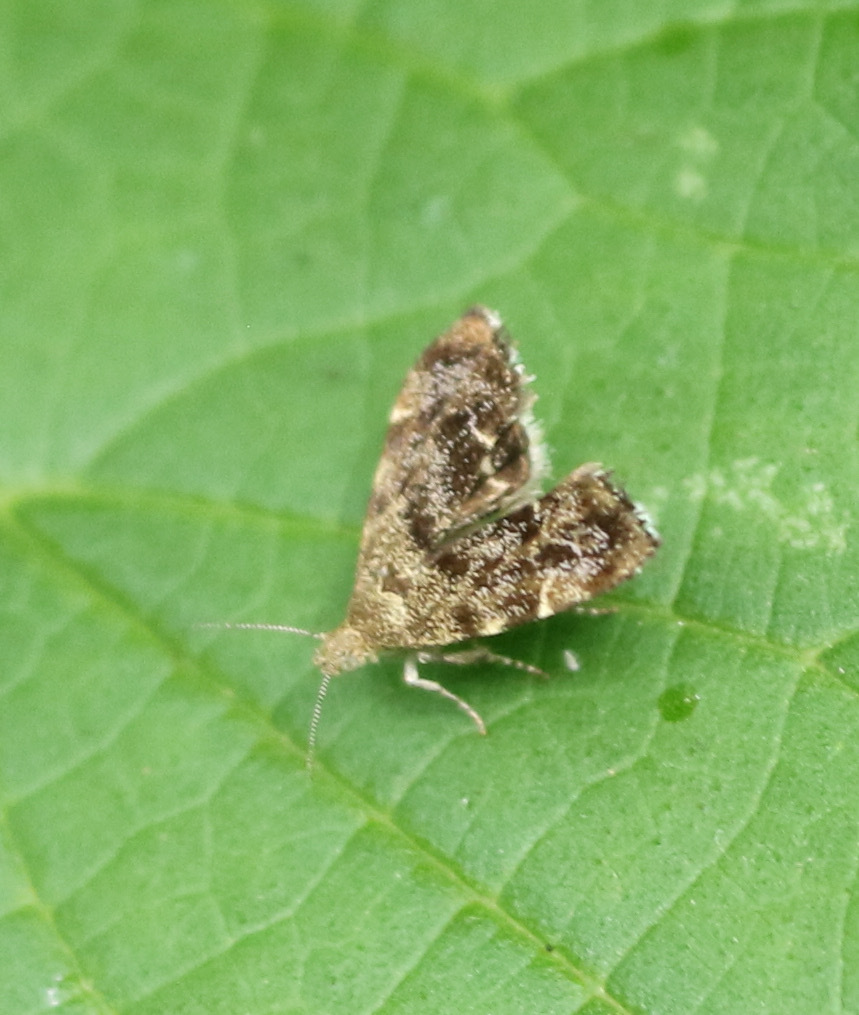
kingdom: Animalia
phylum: Arthropoda
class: Insecta
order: Lepidoptera
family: Choreutidae
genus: Anthophila
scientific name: Anthophila fabriciana
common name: Nettle-tap
